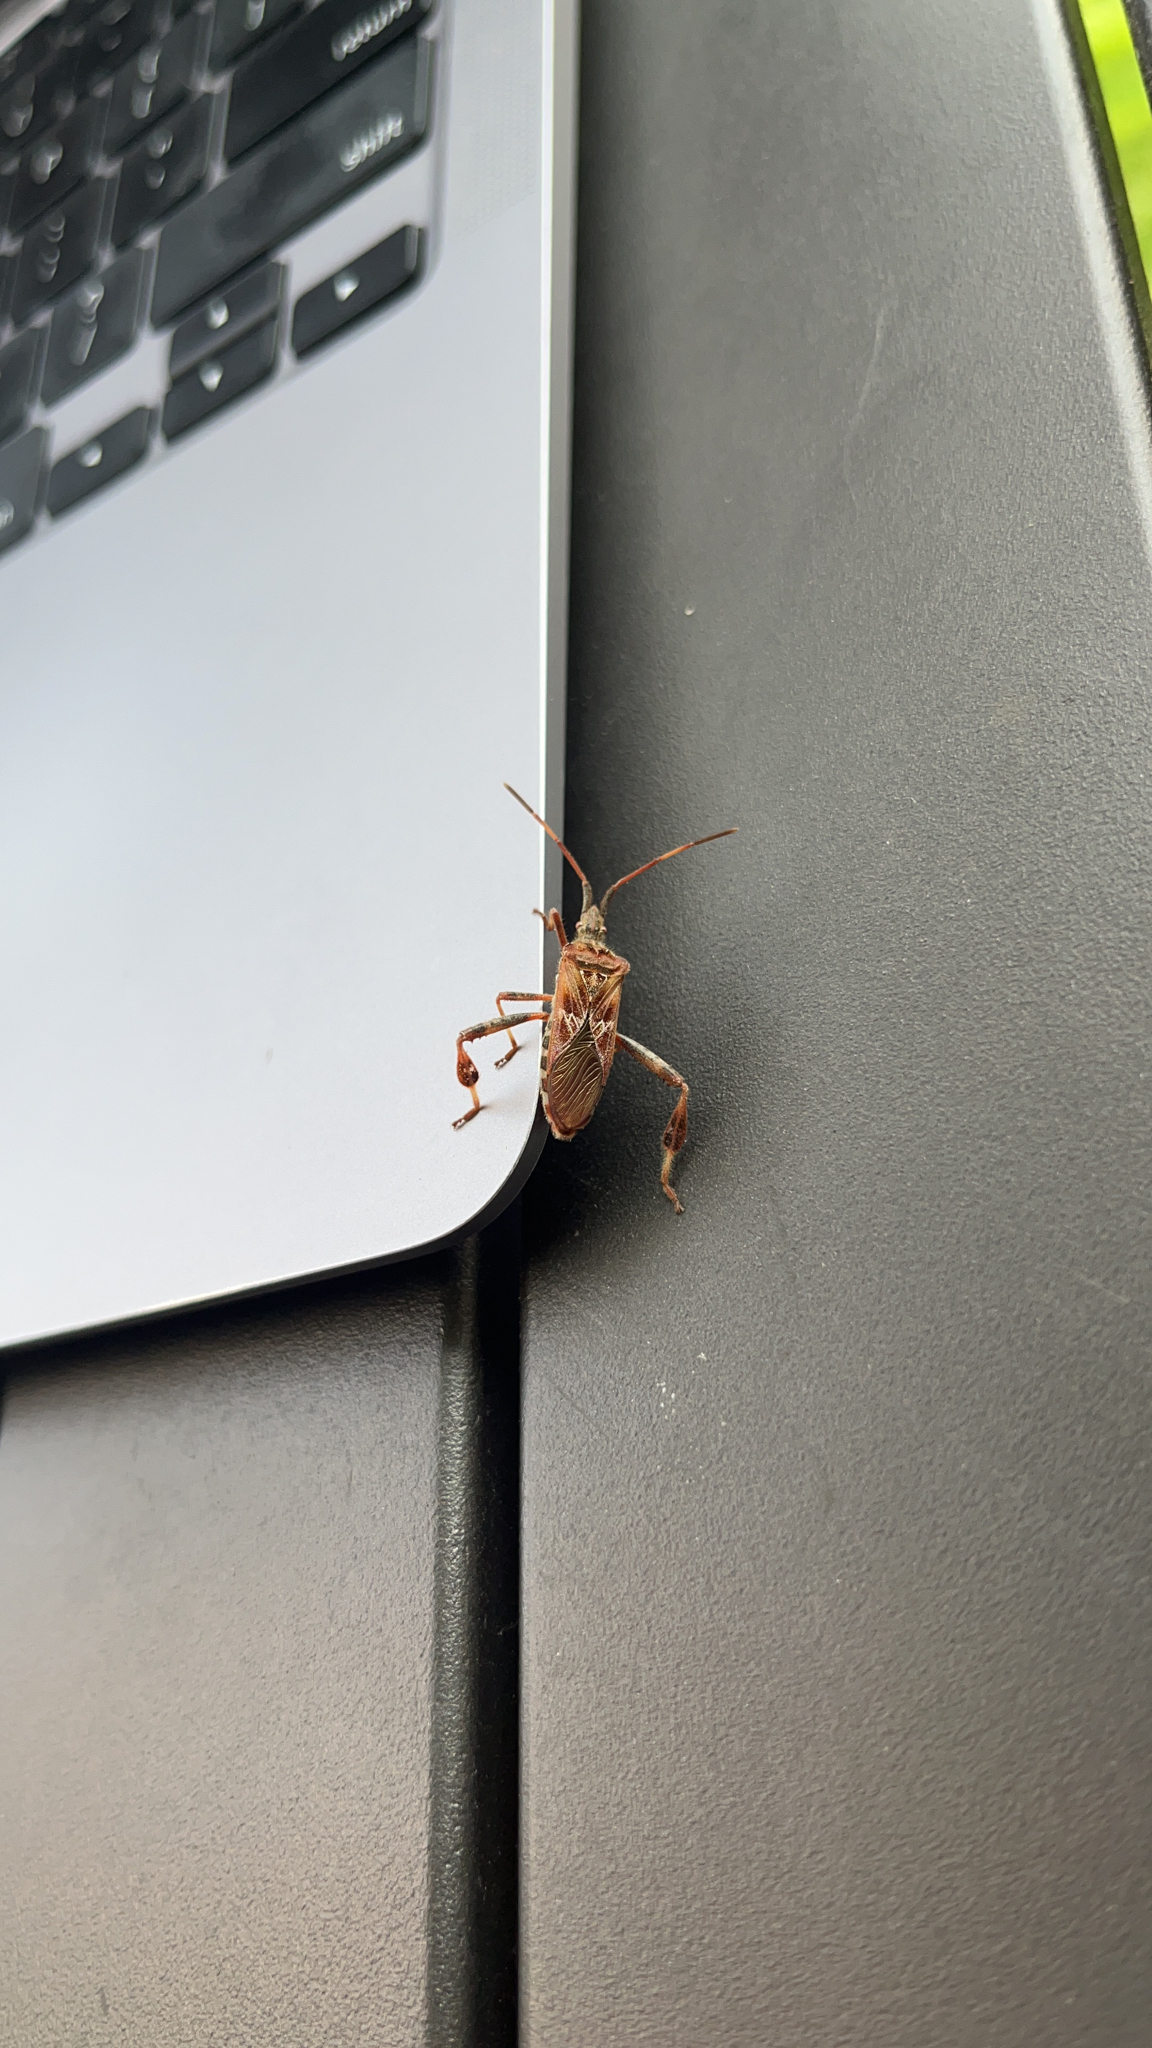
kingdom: Animalia
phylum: Arthropoda
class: Insecta
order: Hemiptera
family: Coreidae
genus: Leptoglossus
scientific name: Leptoglossus occidentalis
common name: Western conifer-seed bug
